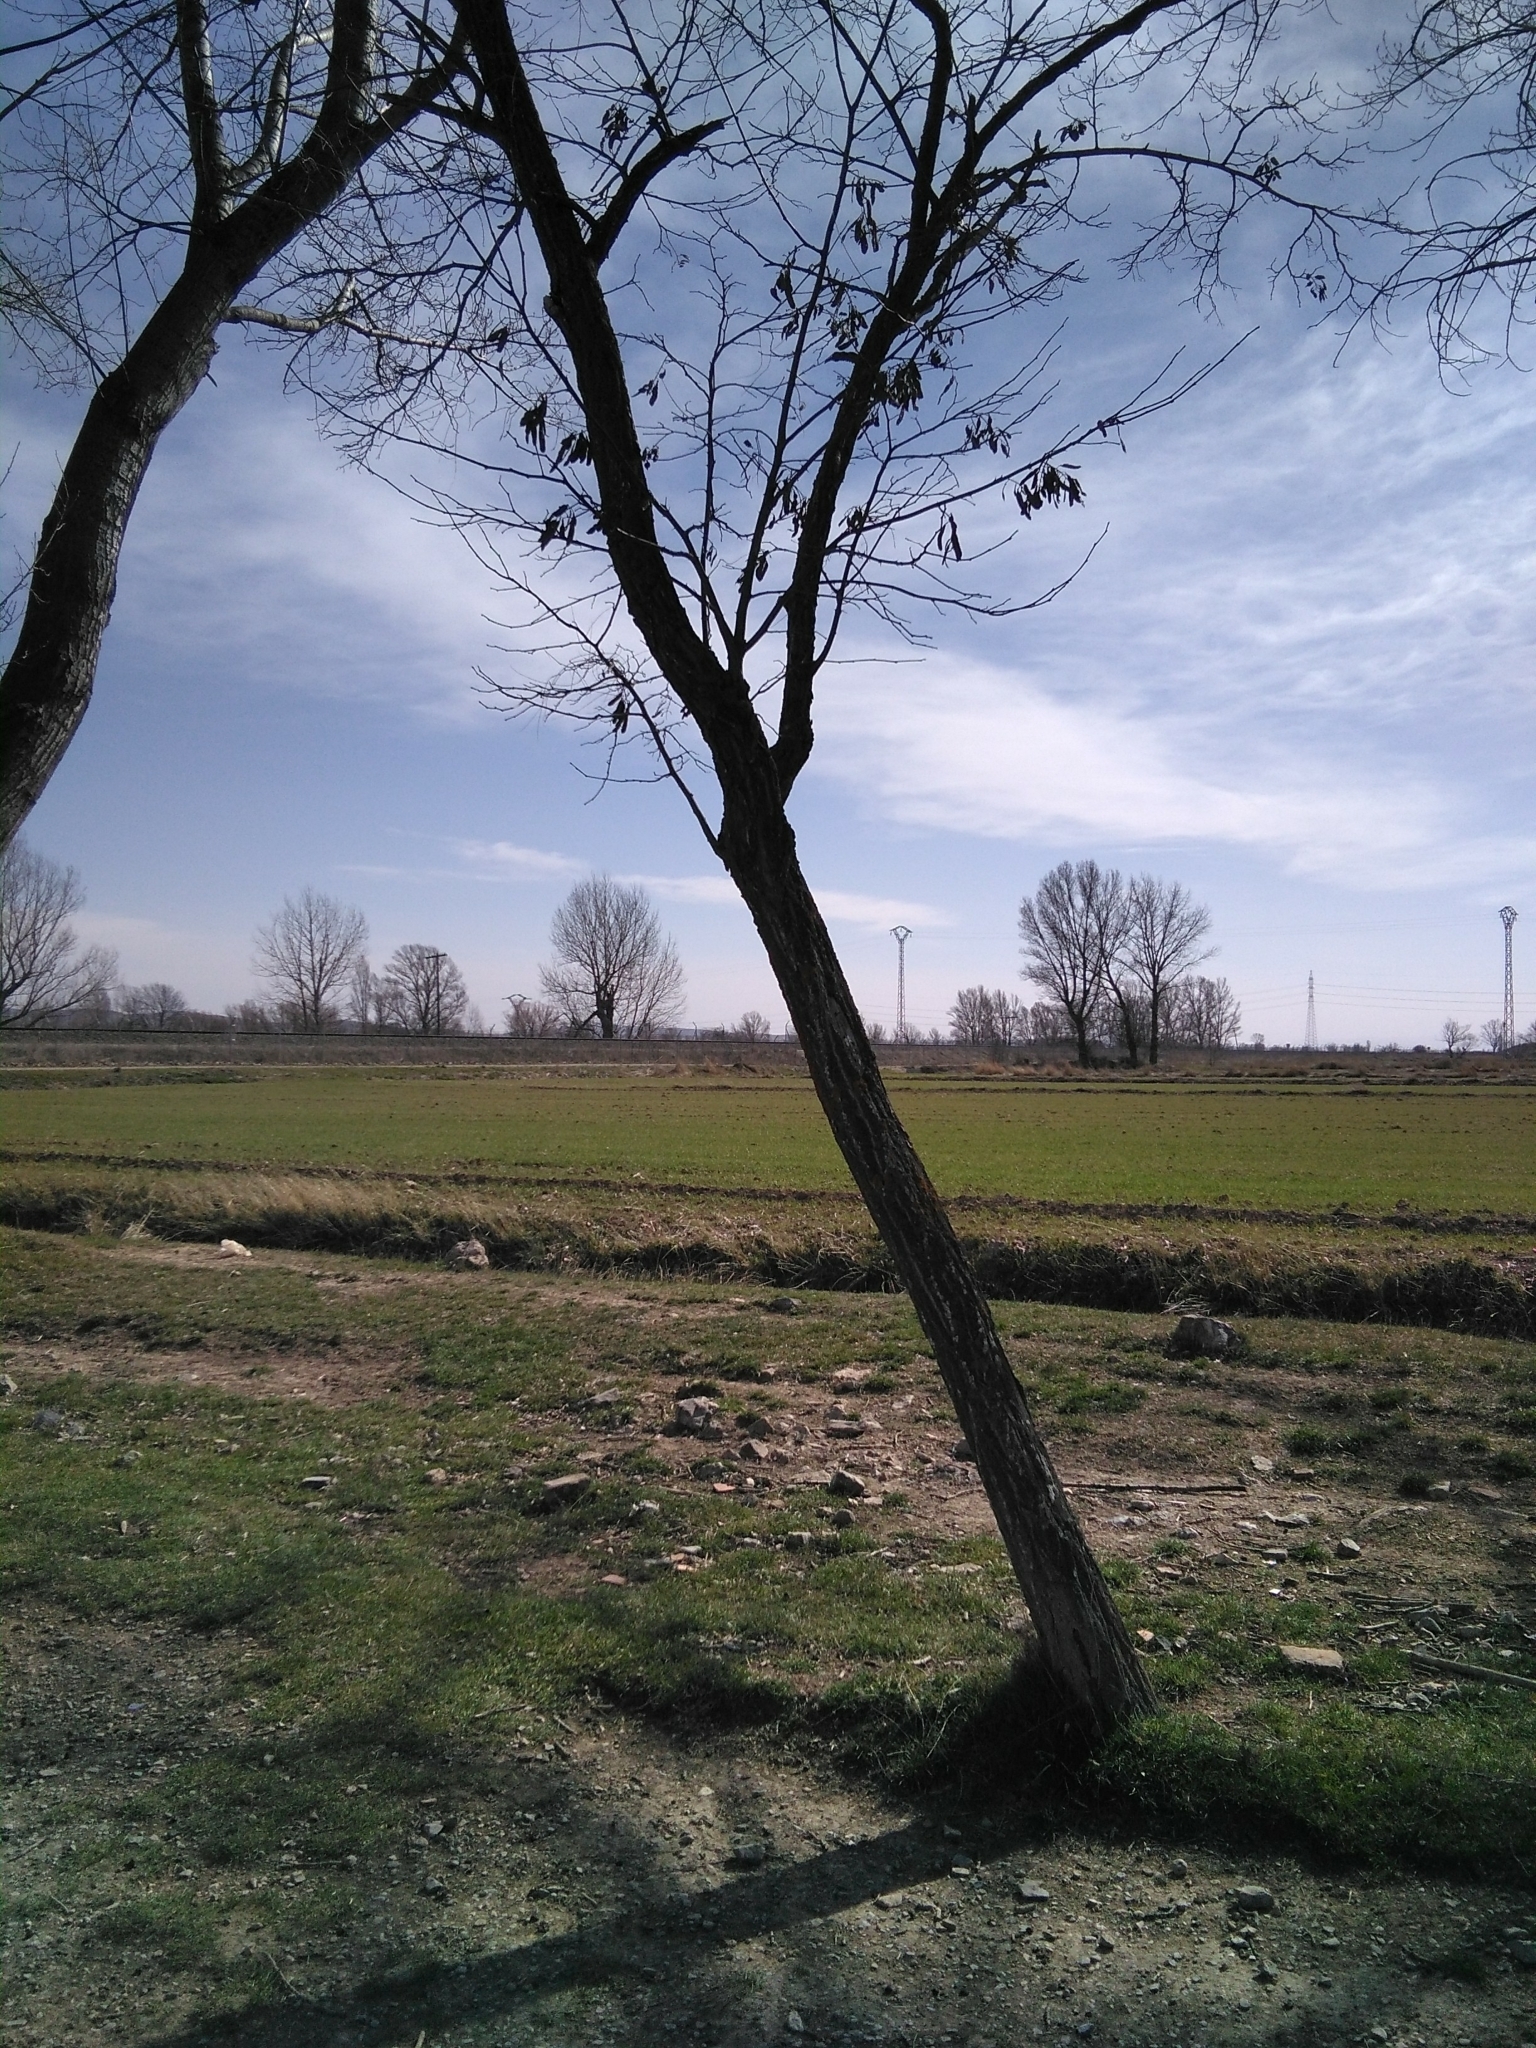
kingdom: Plantae
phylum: Tracheophyta
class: Magnoliopsida
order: Fabales
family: Fabaceae
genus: Robinia
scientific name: Robinia pseudoacacia
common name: Black locust
